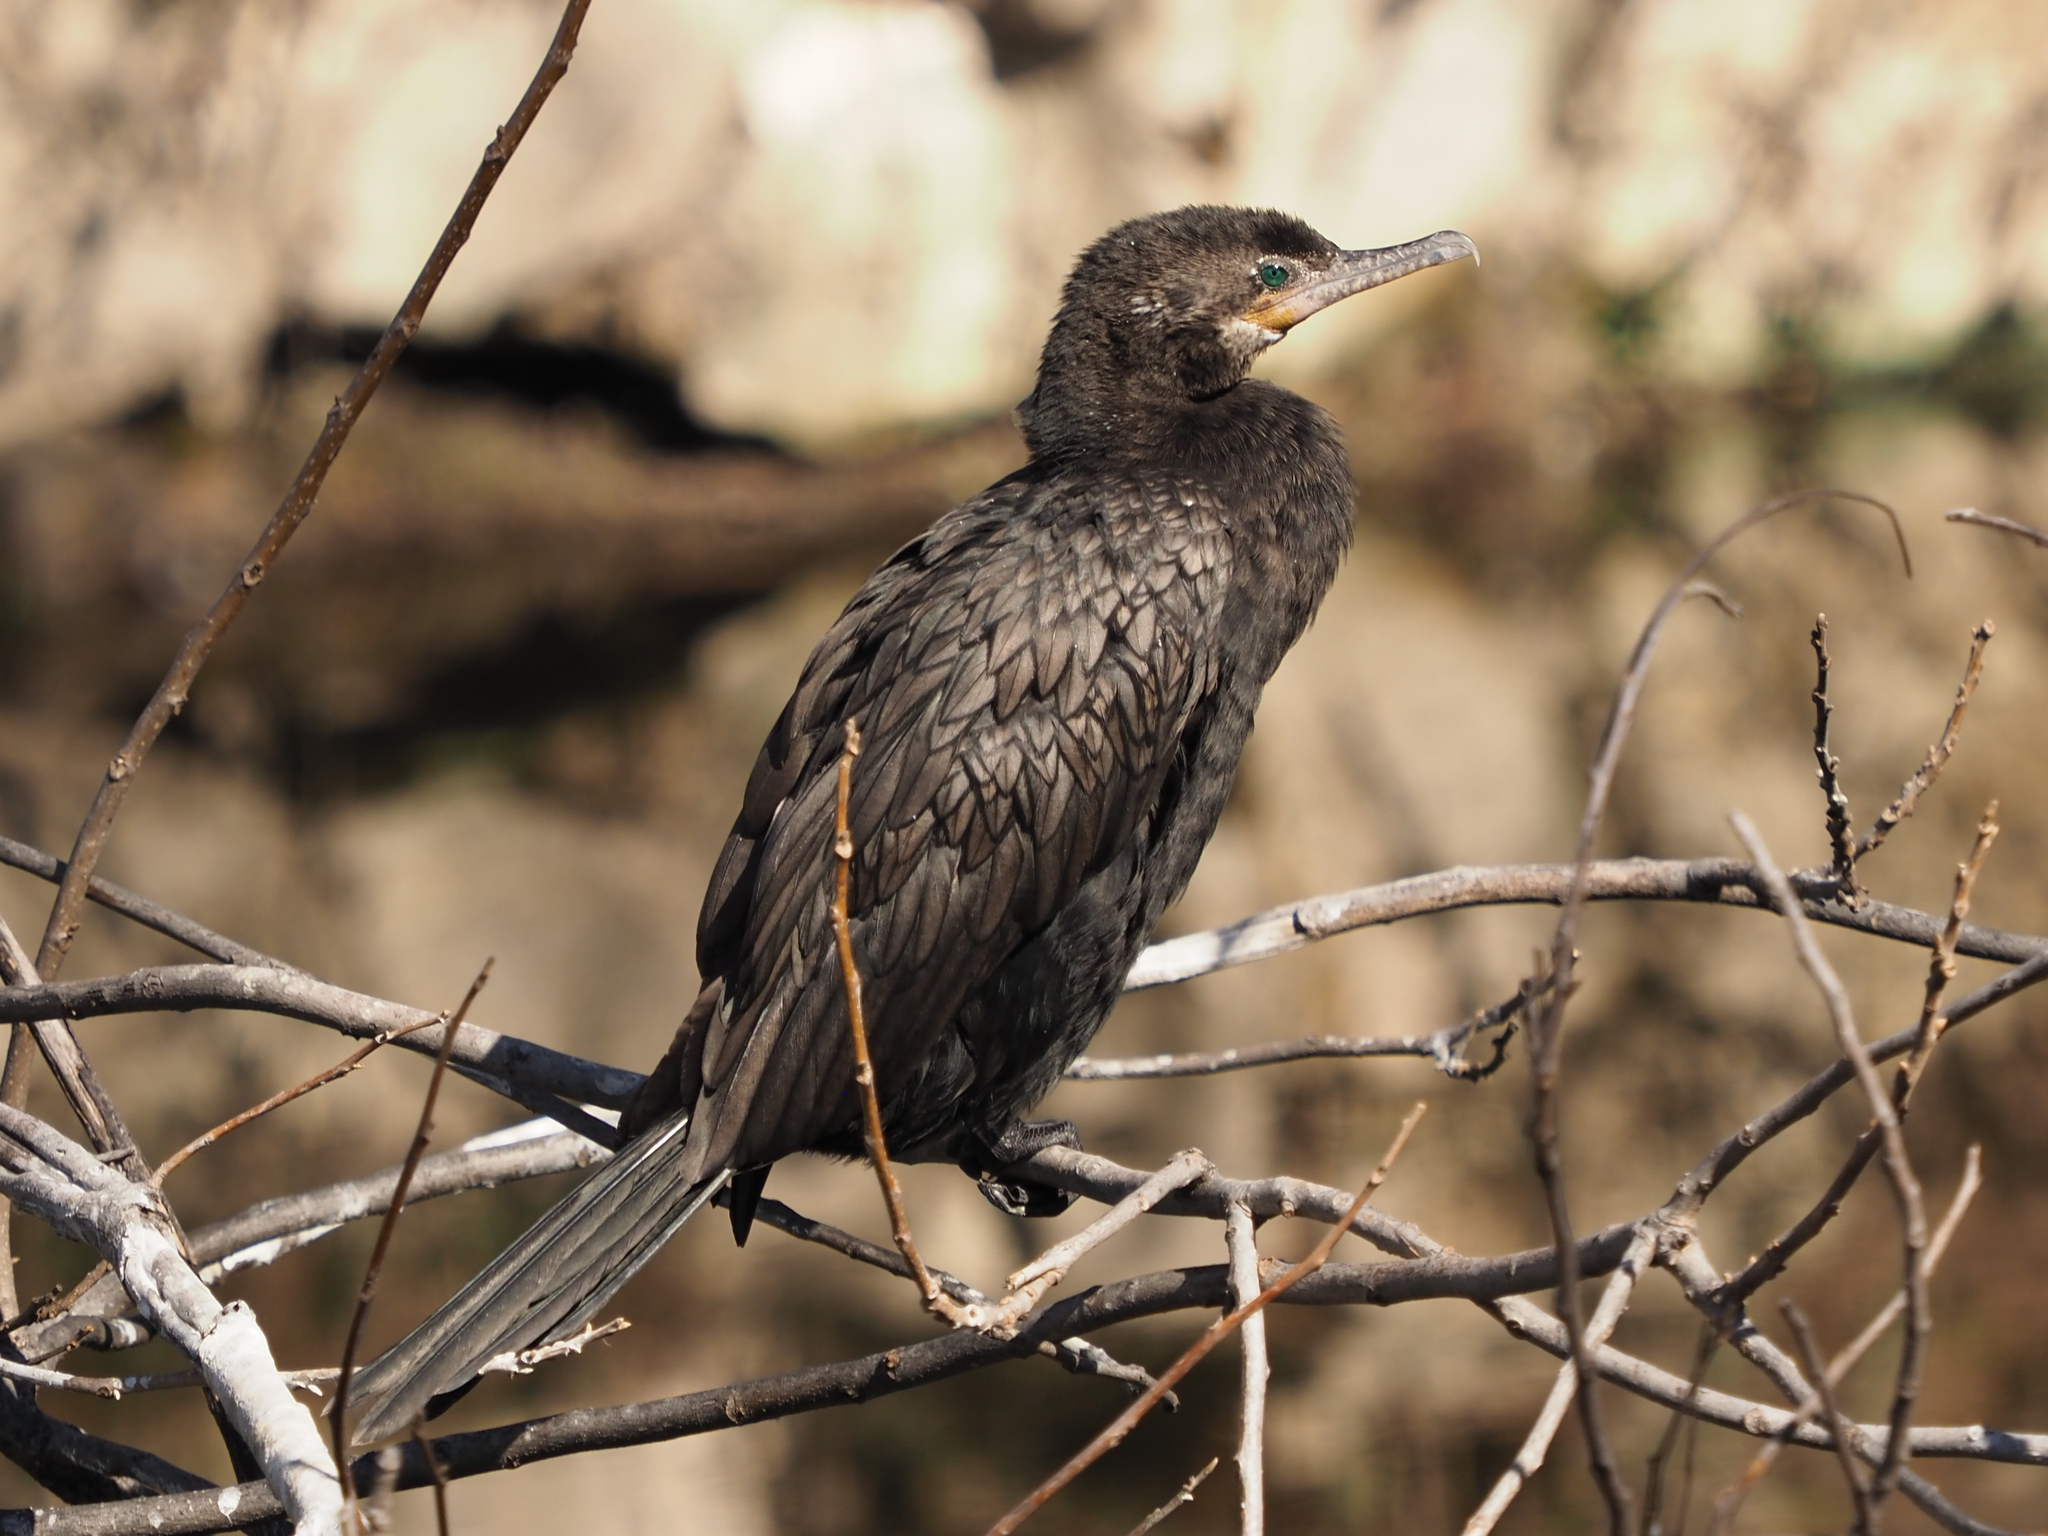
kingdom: Animalia
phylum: Chordata
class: Aves
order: Suliformes
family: Phalacrocoracidae
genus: Phalacrocorax
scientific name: Phalacrocorax brasilianus
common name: Neotropic cormorant
